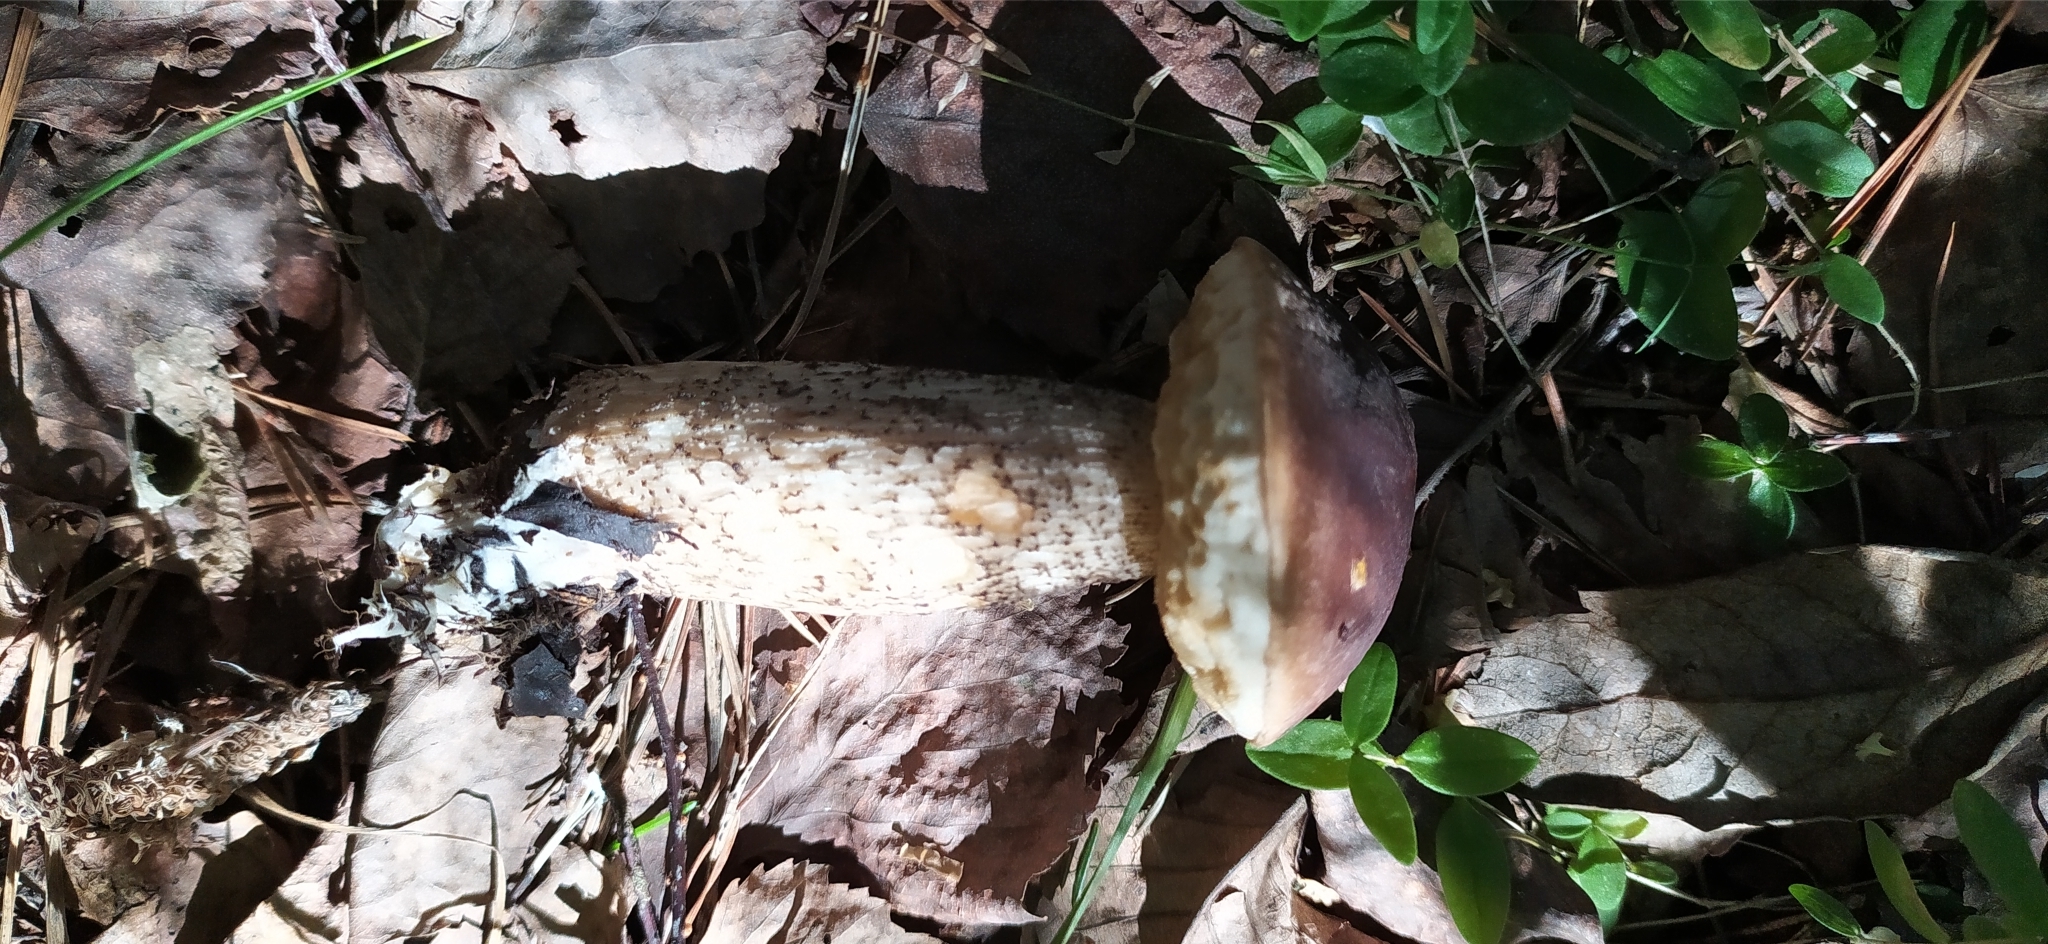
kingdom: Fungi
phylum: Basidiomycota
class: Agaricomycetes
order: Boletales
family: Boletaceae
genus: Leccinum
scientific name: Leccinum scabrum
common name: Blushing bolete
